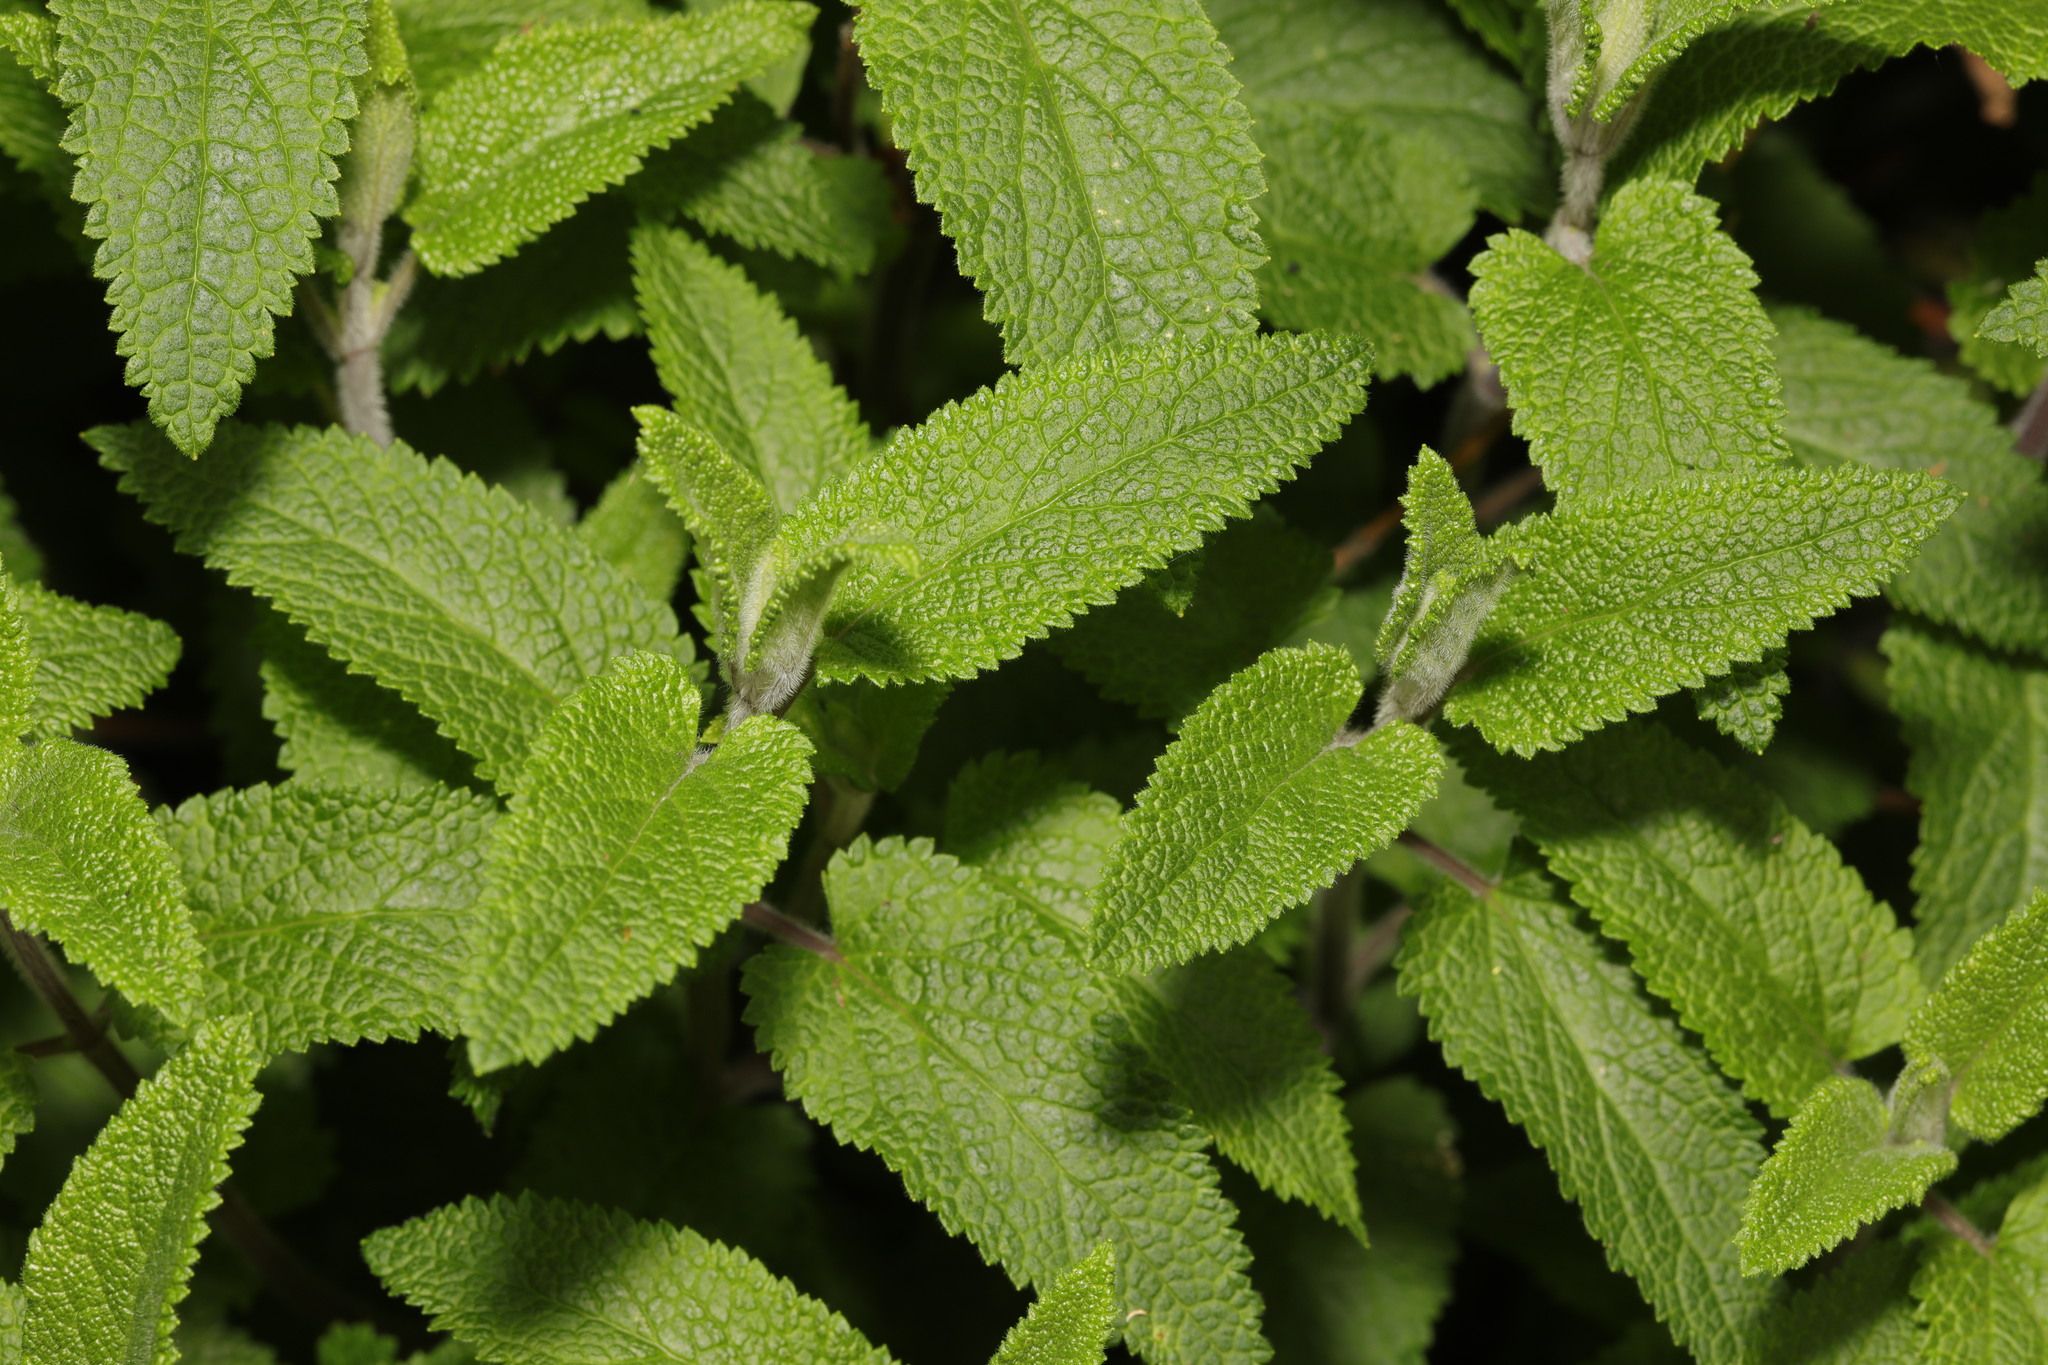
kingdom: Plantae
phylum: Tracheophyta
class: Magnoliopsida
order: Lamiales
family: Lamiaceae
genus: Teucrium
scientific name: Teucrium scorodonia
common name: Woodland germander
